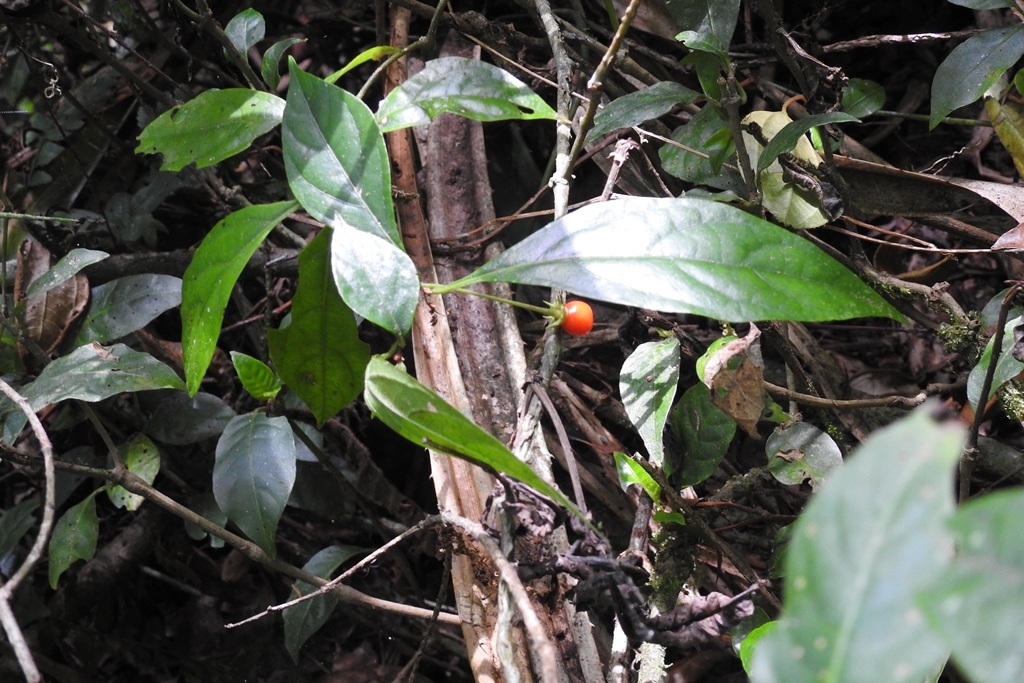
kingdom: Plantae
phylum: Tracheophyta
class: Magnoliopsida
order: Solanales
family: Solanaceae
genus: Lycianthes
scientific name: Lycianthes connata
